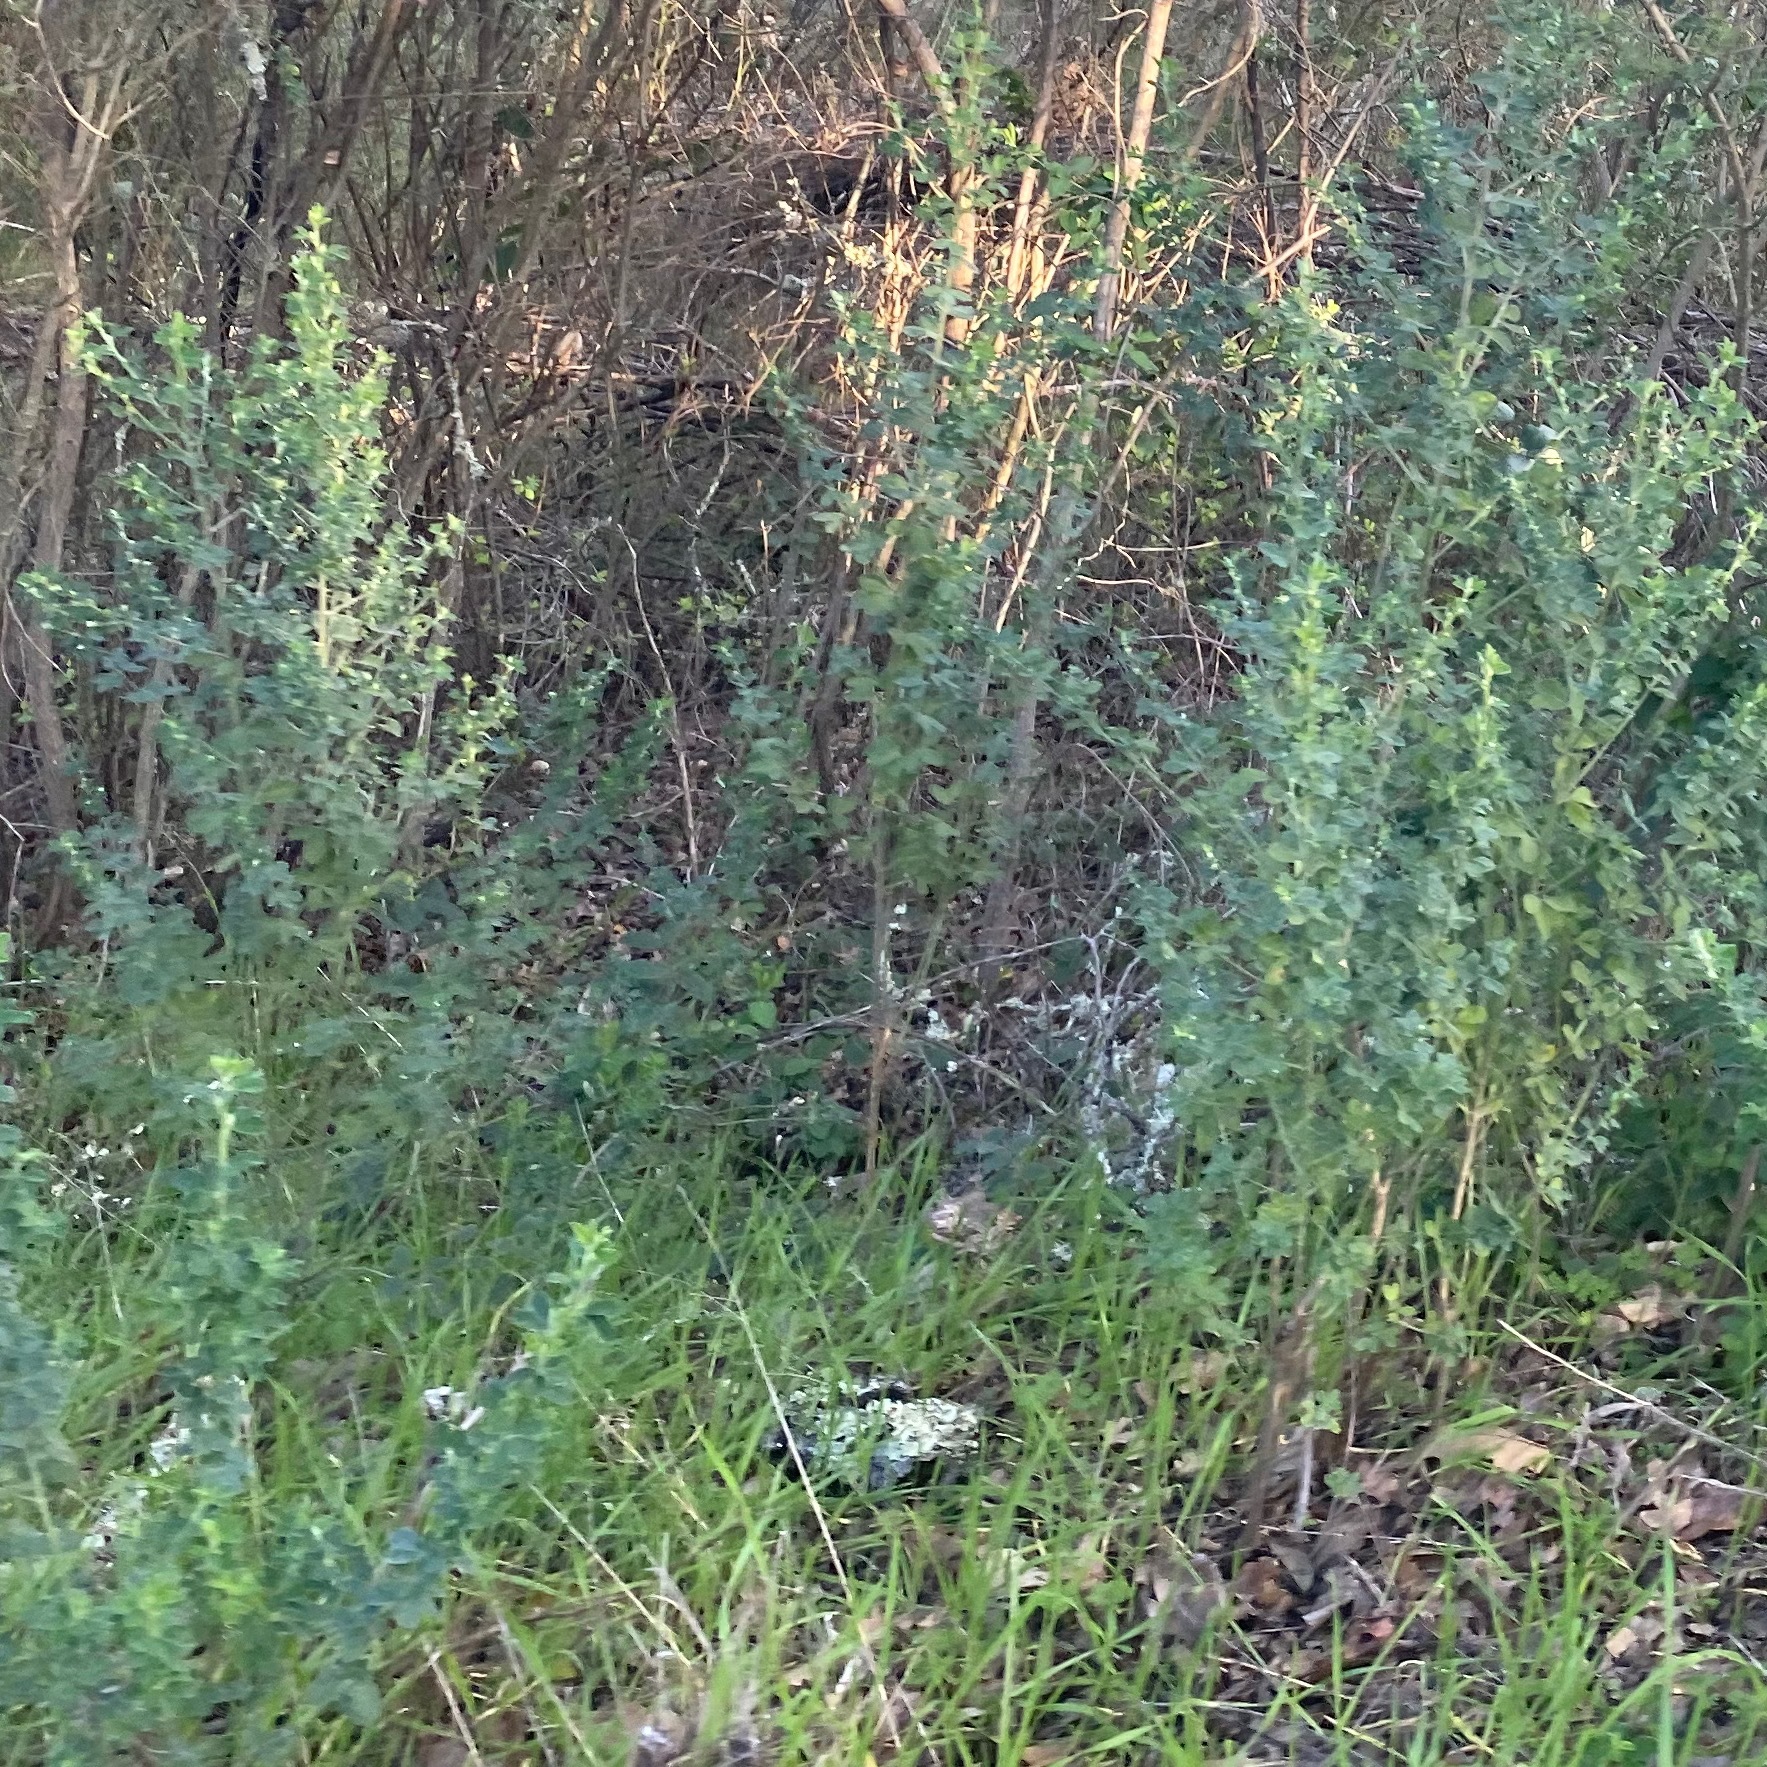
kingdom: Plantae
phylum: Tracheophyta
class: Magnoliopsida
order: Fabales
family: Fabaceae
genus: Genista
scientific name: Genista monspessulana
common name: Montpellier broom
